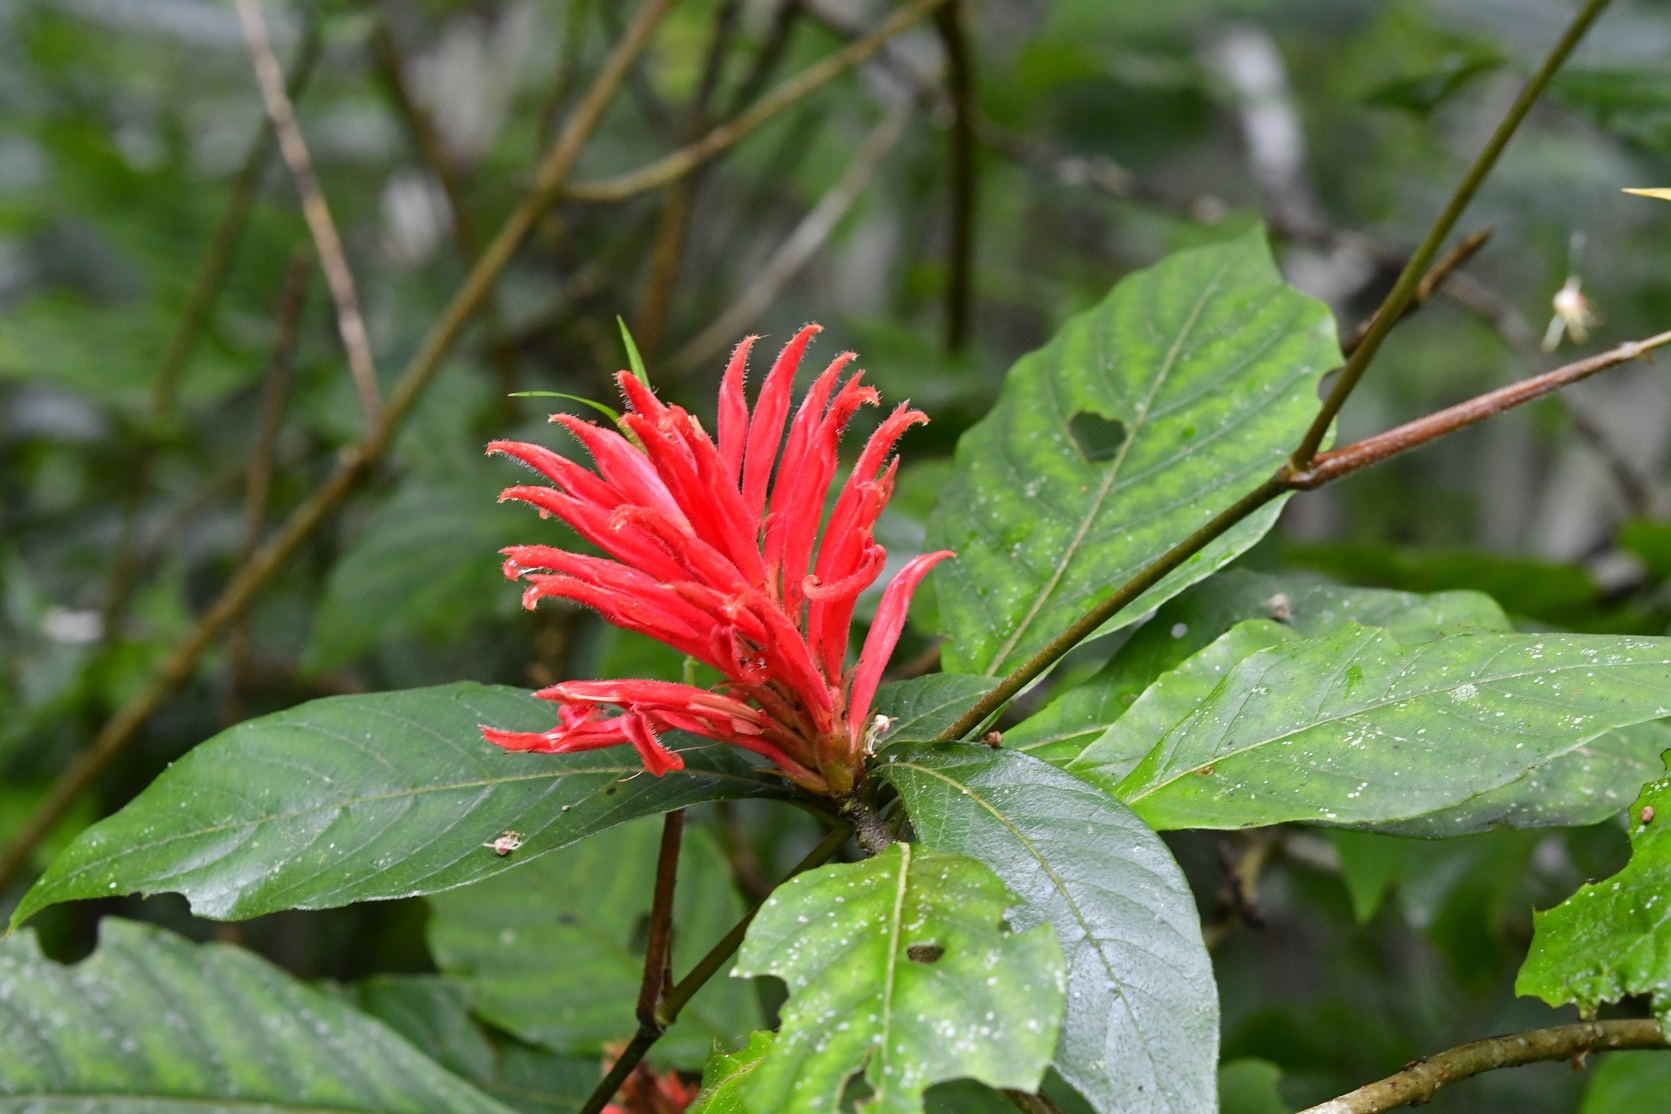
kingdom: Plantae
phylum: Tracheophyta
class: Magnoliopsida
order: Lamiales
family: Acanthaceae
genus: Aphelandra
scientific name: Aphelandra scabra
